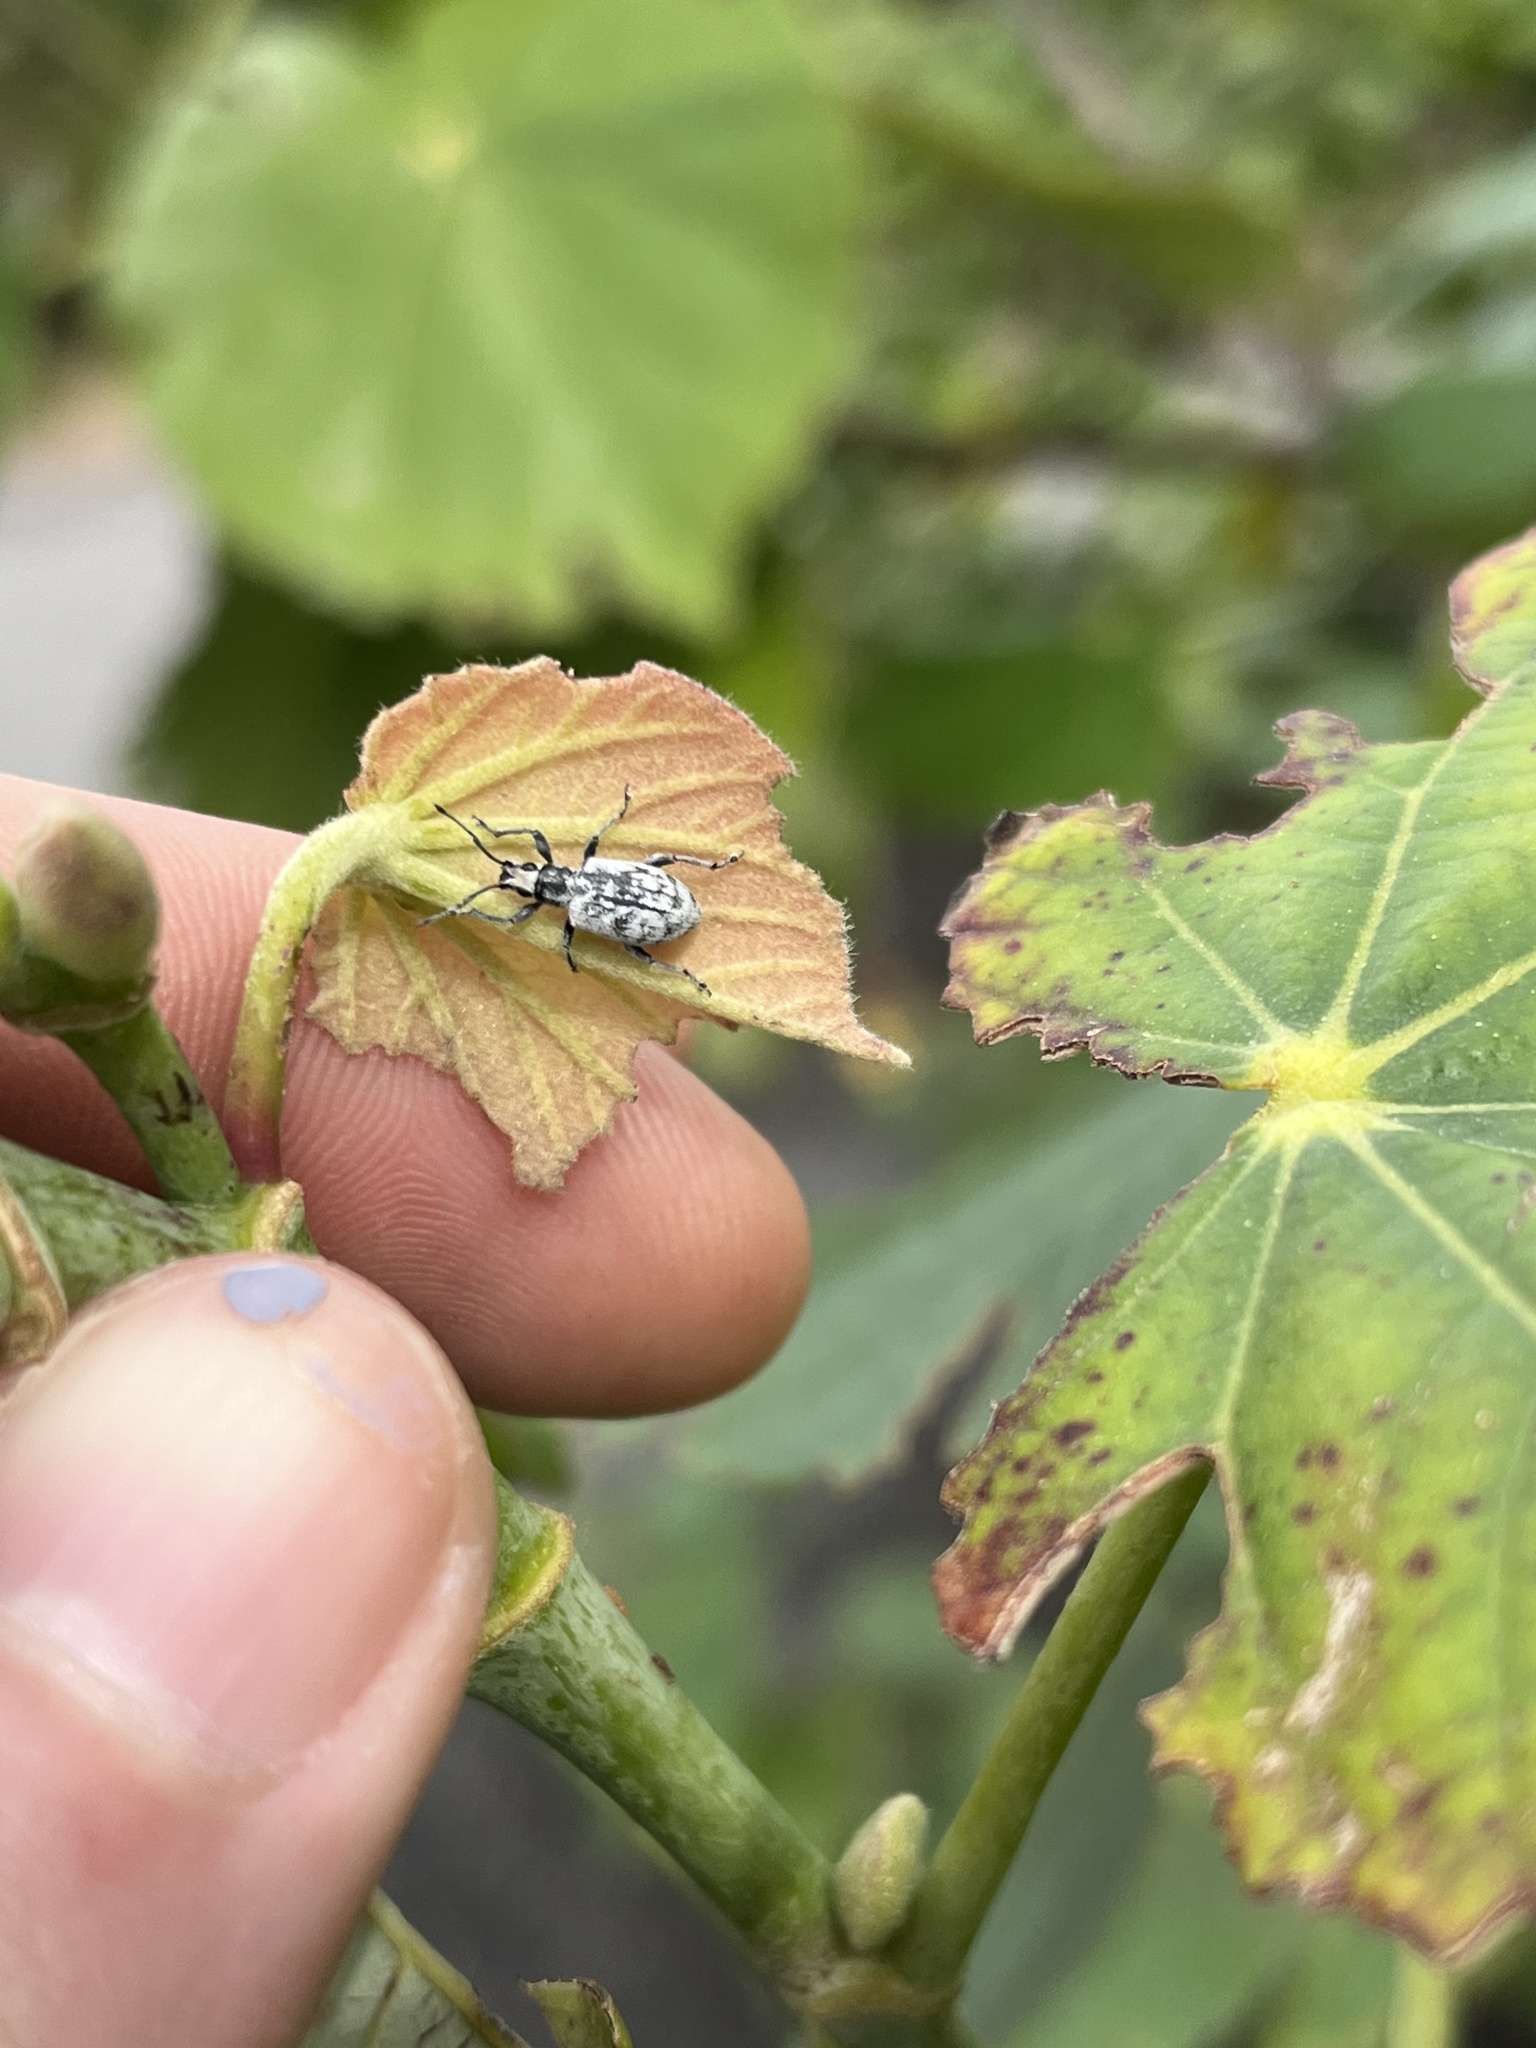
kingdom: Animalia
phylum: Arthropoda
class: Insecta
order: Coleoptera
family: Curculionidae
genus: Myllocerus
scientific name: Myllocerus undecimpustulatus
